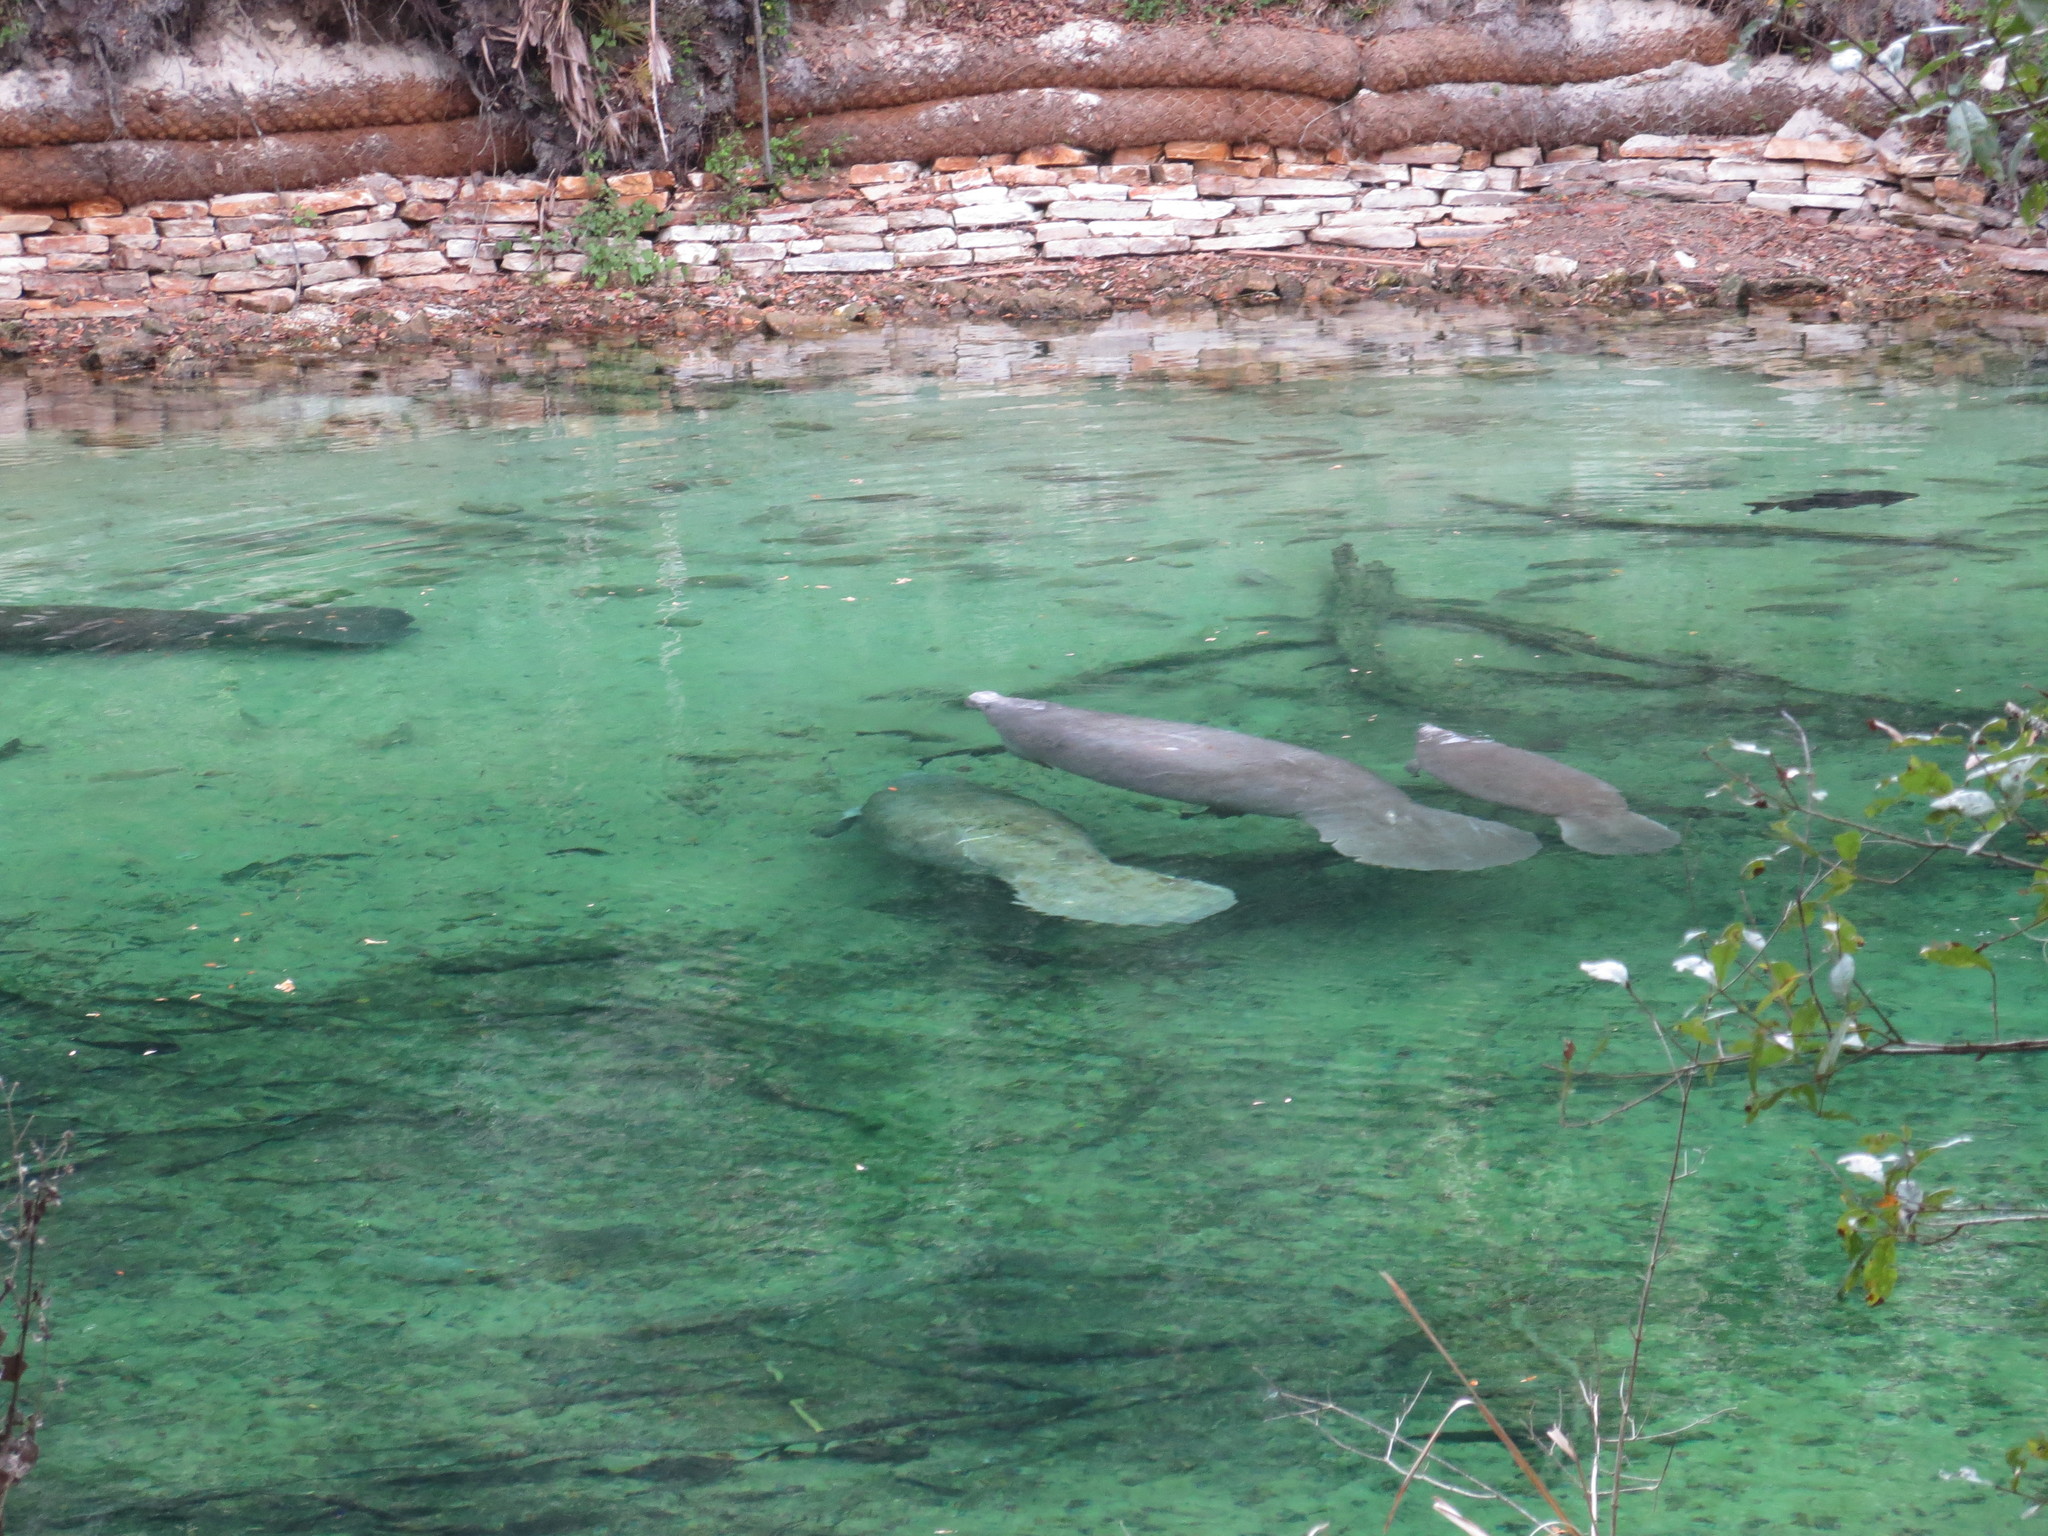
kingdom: Animalia
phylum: Chordata
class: Mammalia
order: Sirenia
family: Trichechidae
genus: Trichechus
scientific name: Trichechus manatus
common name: West indian manatee
